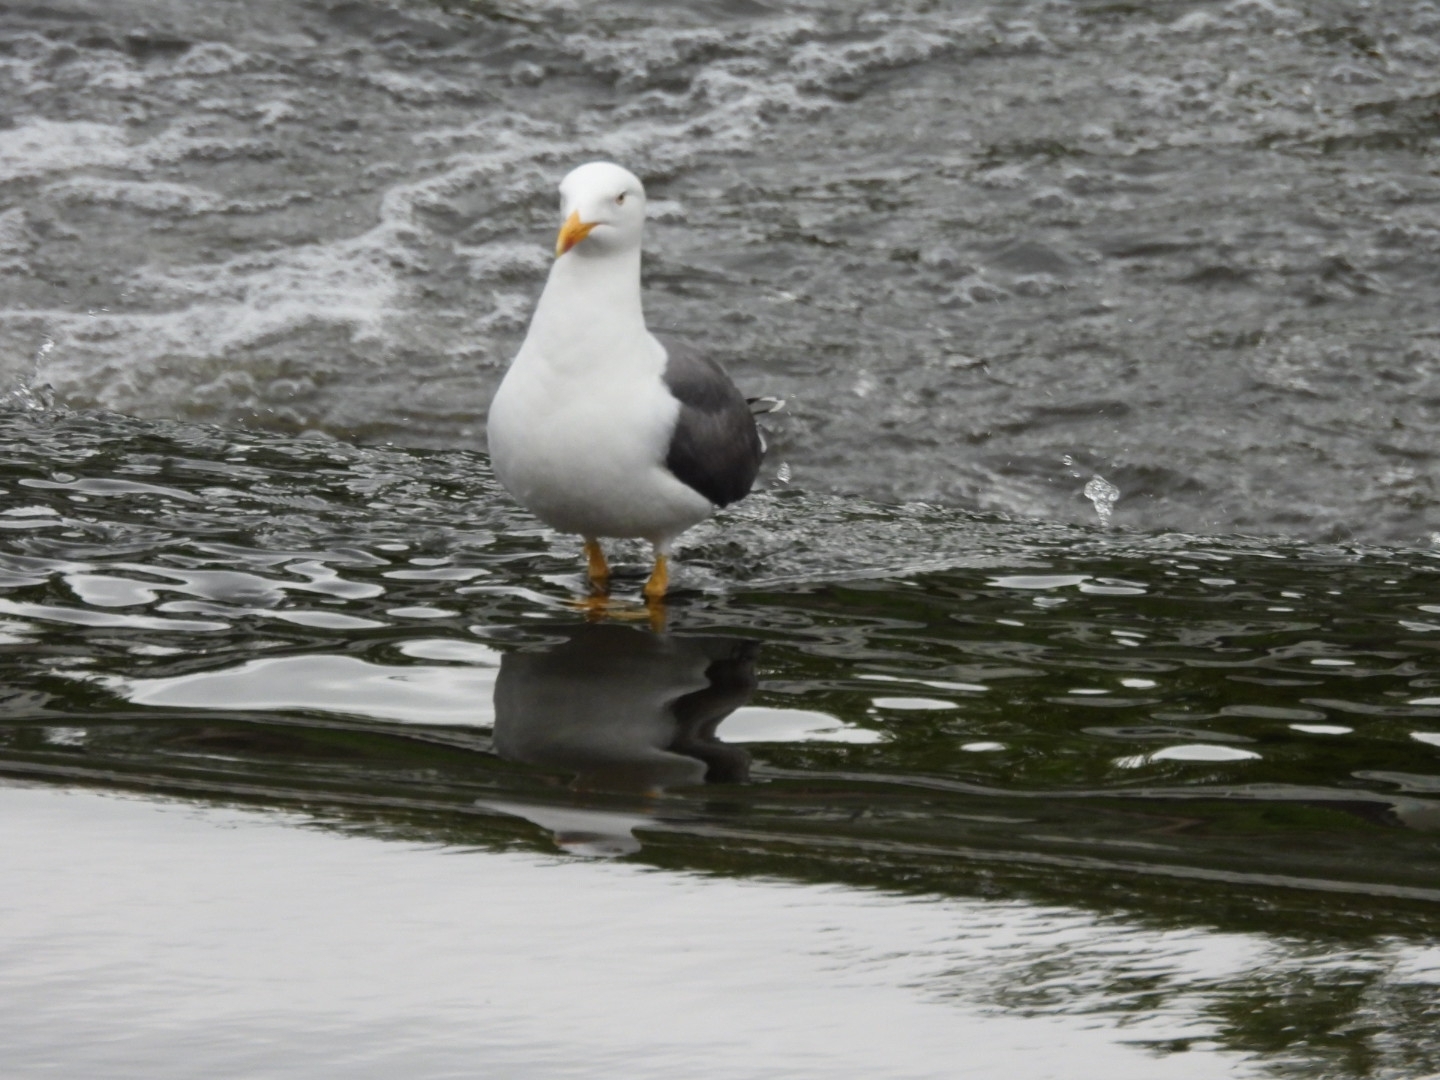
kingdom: Animalia
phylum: Chordata
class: Aves
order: Charadriiformes
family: Laridae
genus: Larus
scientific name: Larus fuscus
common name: Lesser black-backed gull
